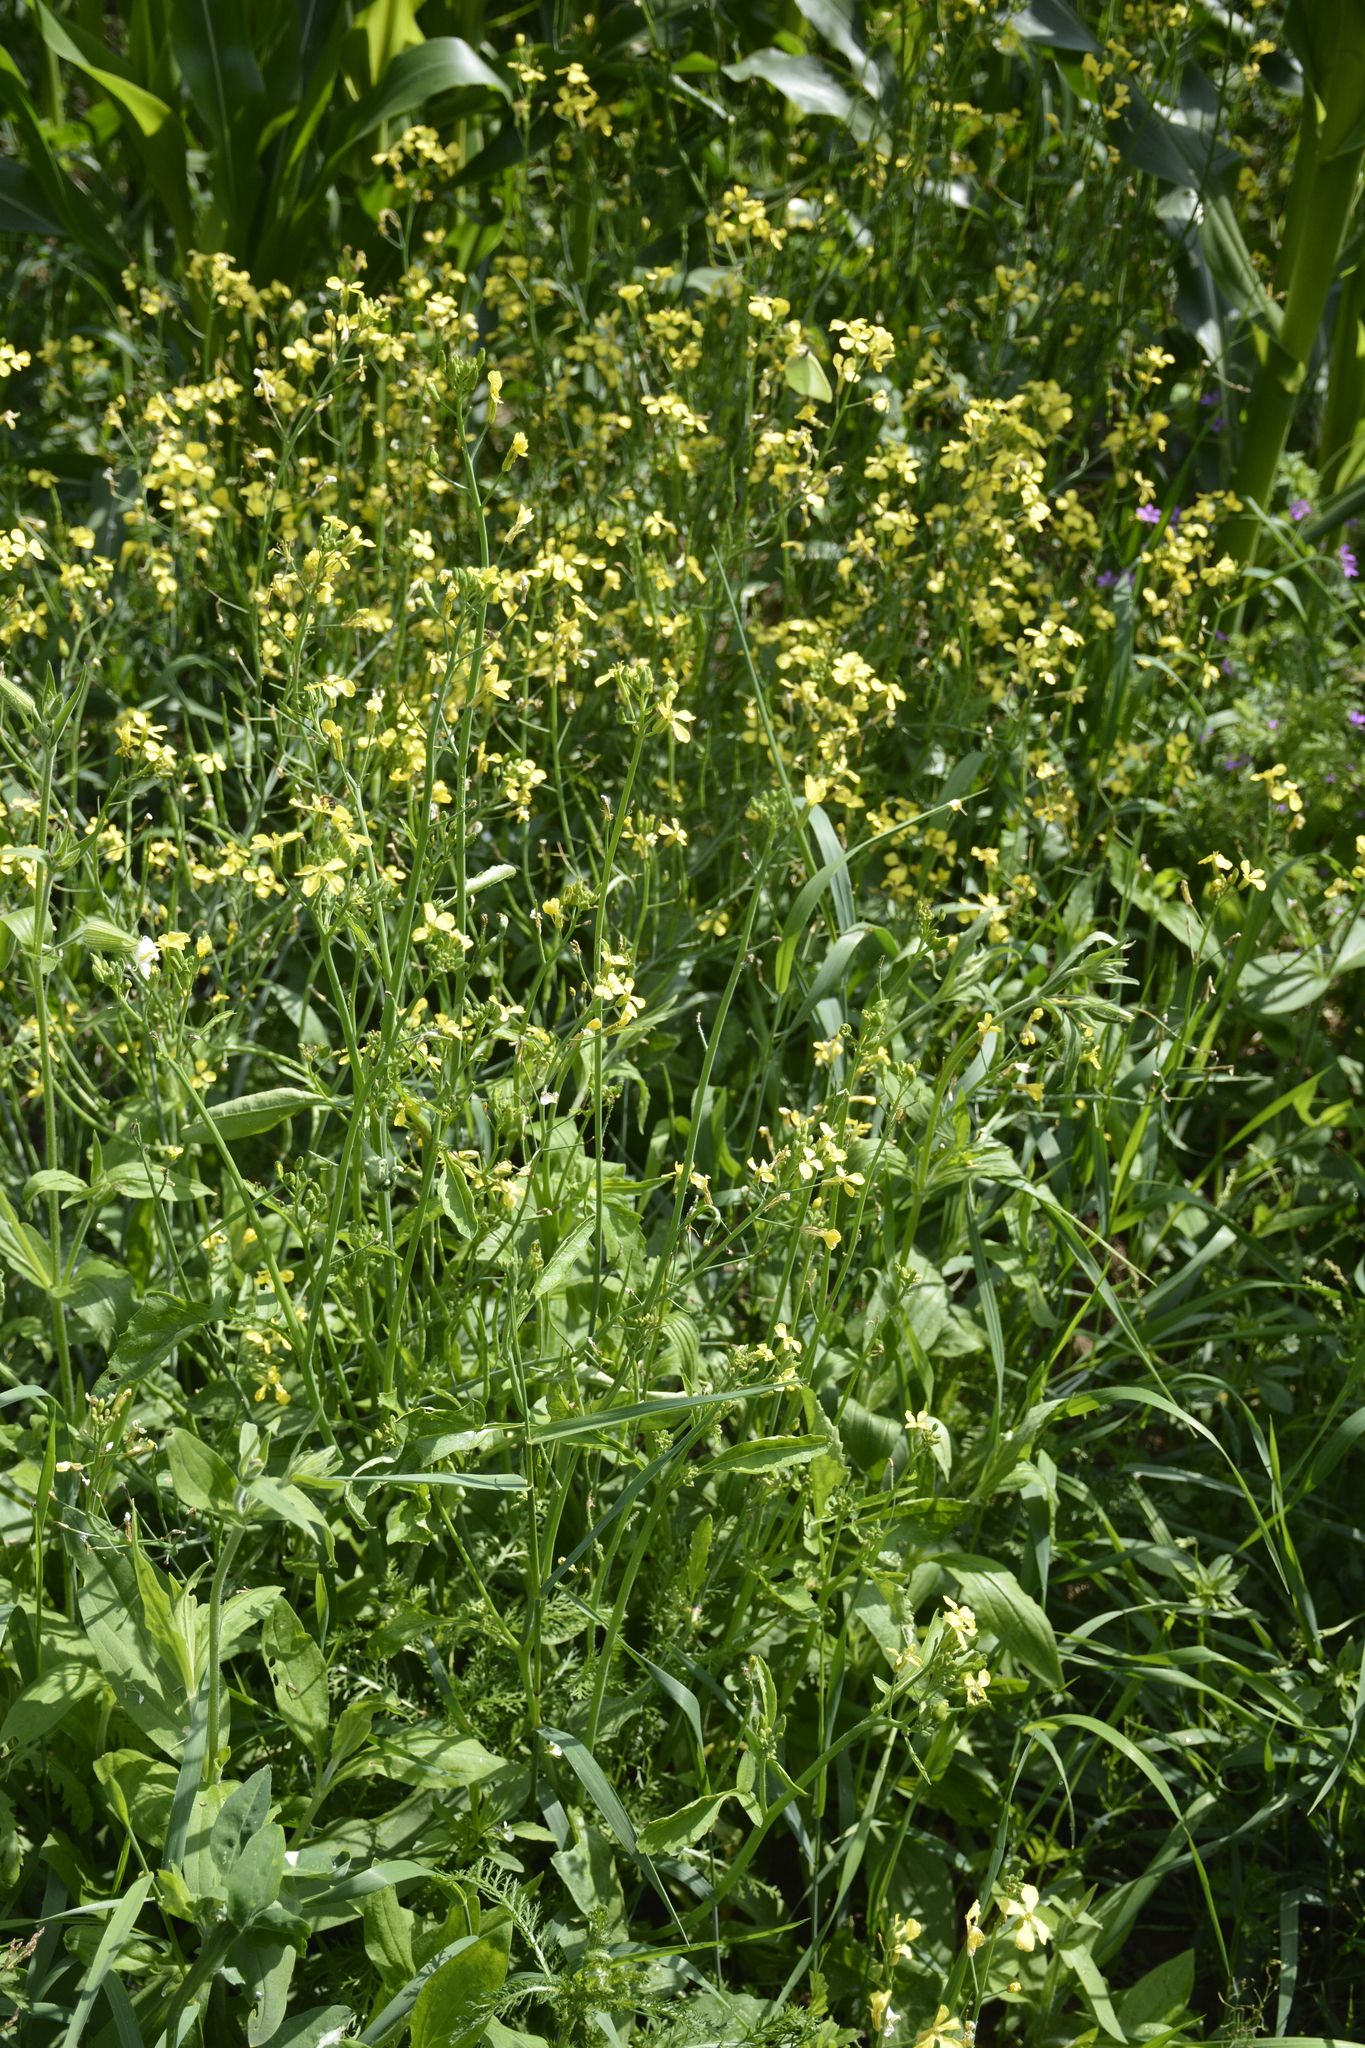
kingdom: Plantae
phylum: Tracheophyta
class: Magnoliopsida
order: Brassicales
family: Brassicaceae
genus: Raphanus
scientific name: Raphanus raphanistrum
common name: Wild radish
